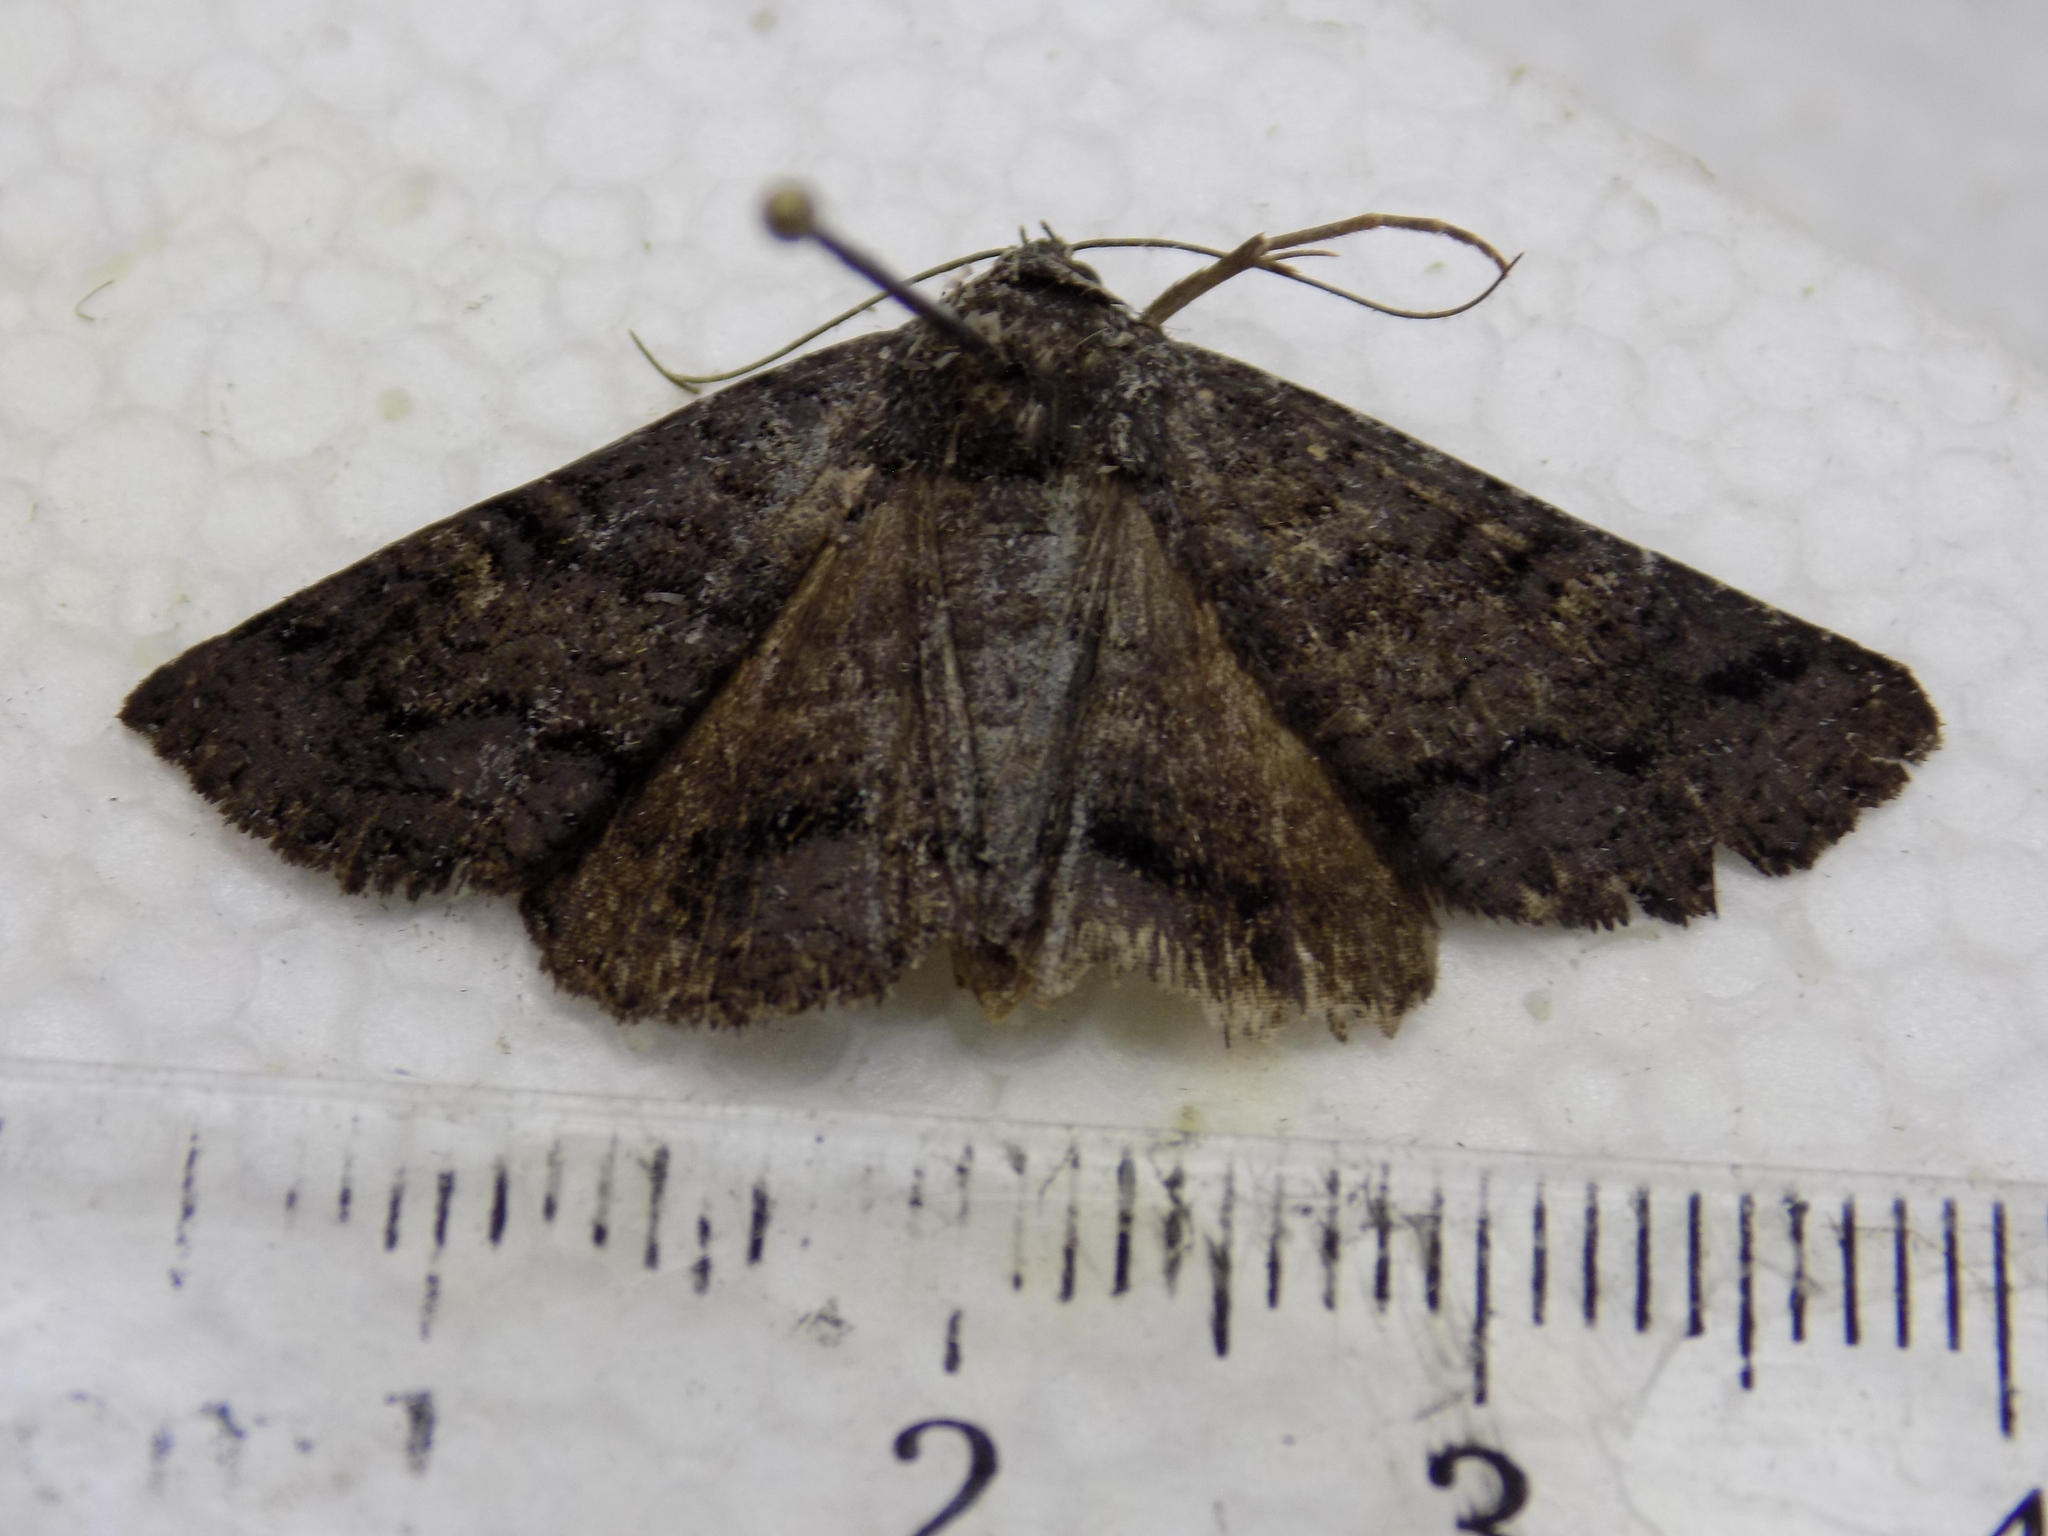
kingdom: Animalia
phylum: Arthropoda
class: Insecta
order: Lepidoptera
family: Erebidae
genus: Zale
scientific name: Zale coracias
